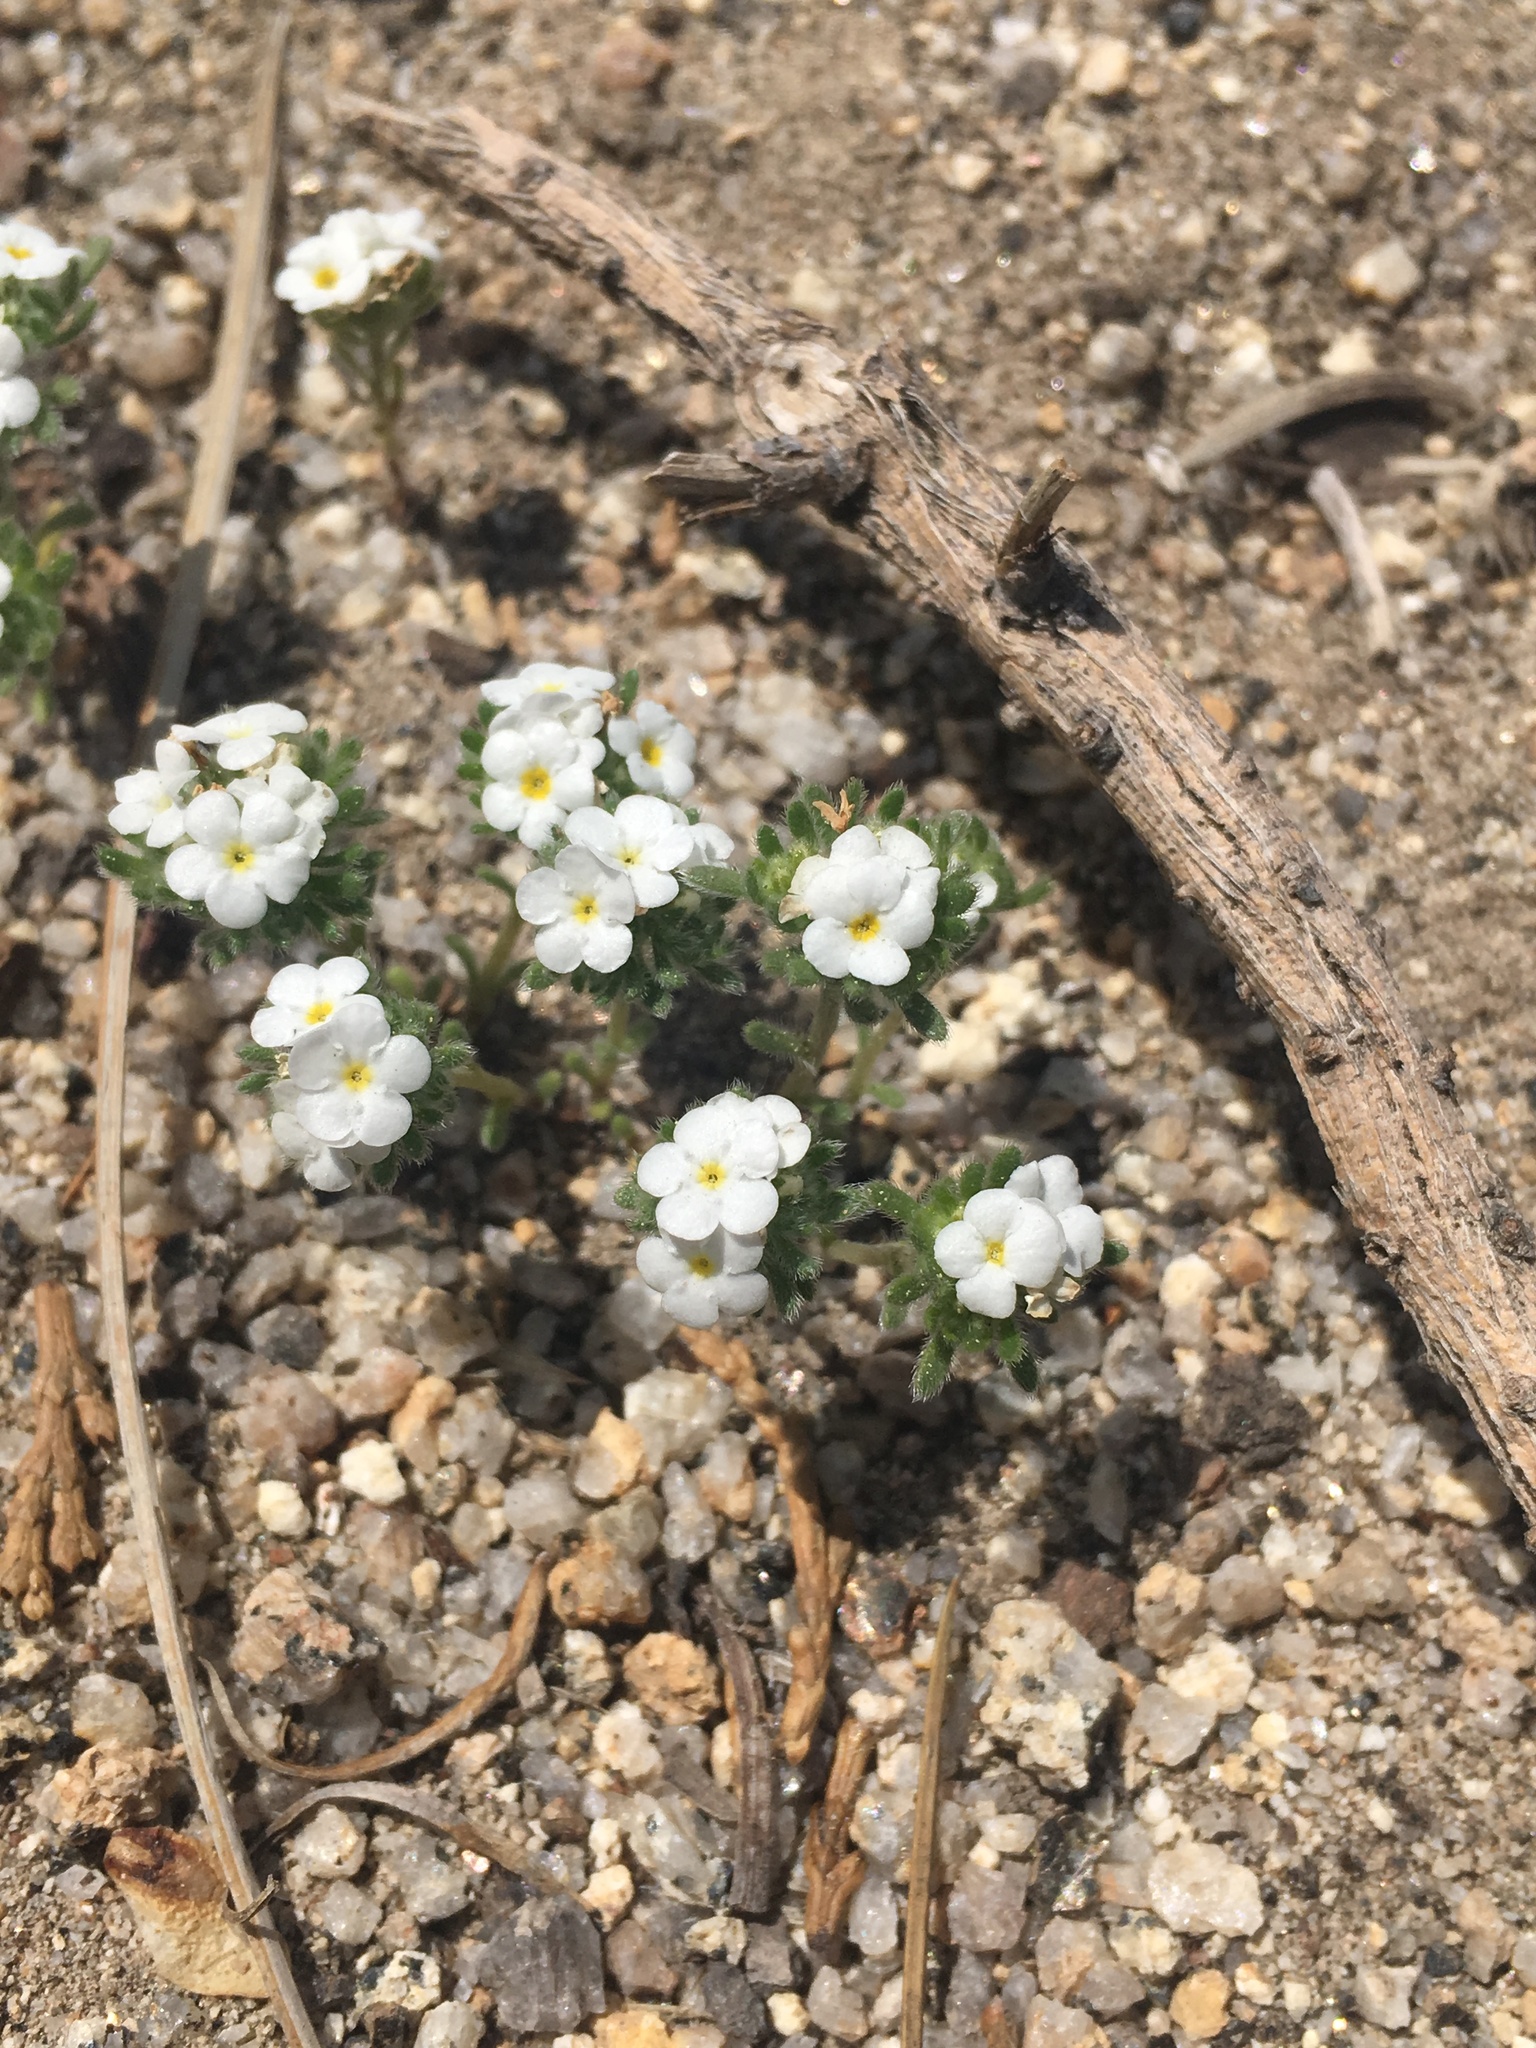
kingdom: Plantae
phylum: Tracheophyta
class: Magnoliopsida
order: Boraginales
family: Boraginaceae
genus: Eremocarya
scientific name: Eremocarya lepida
